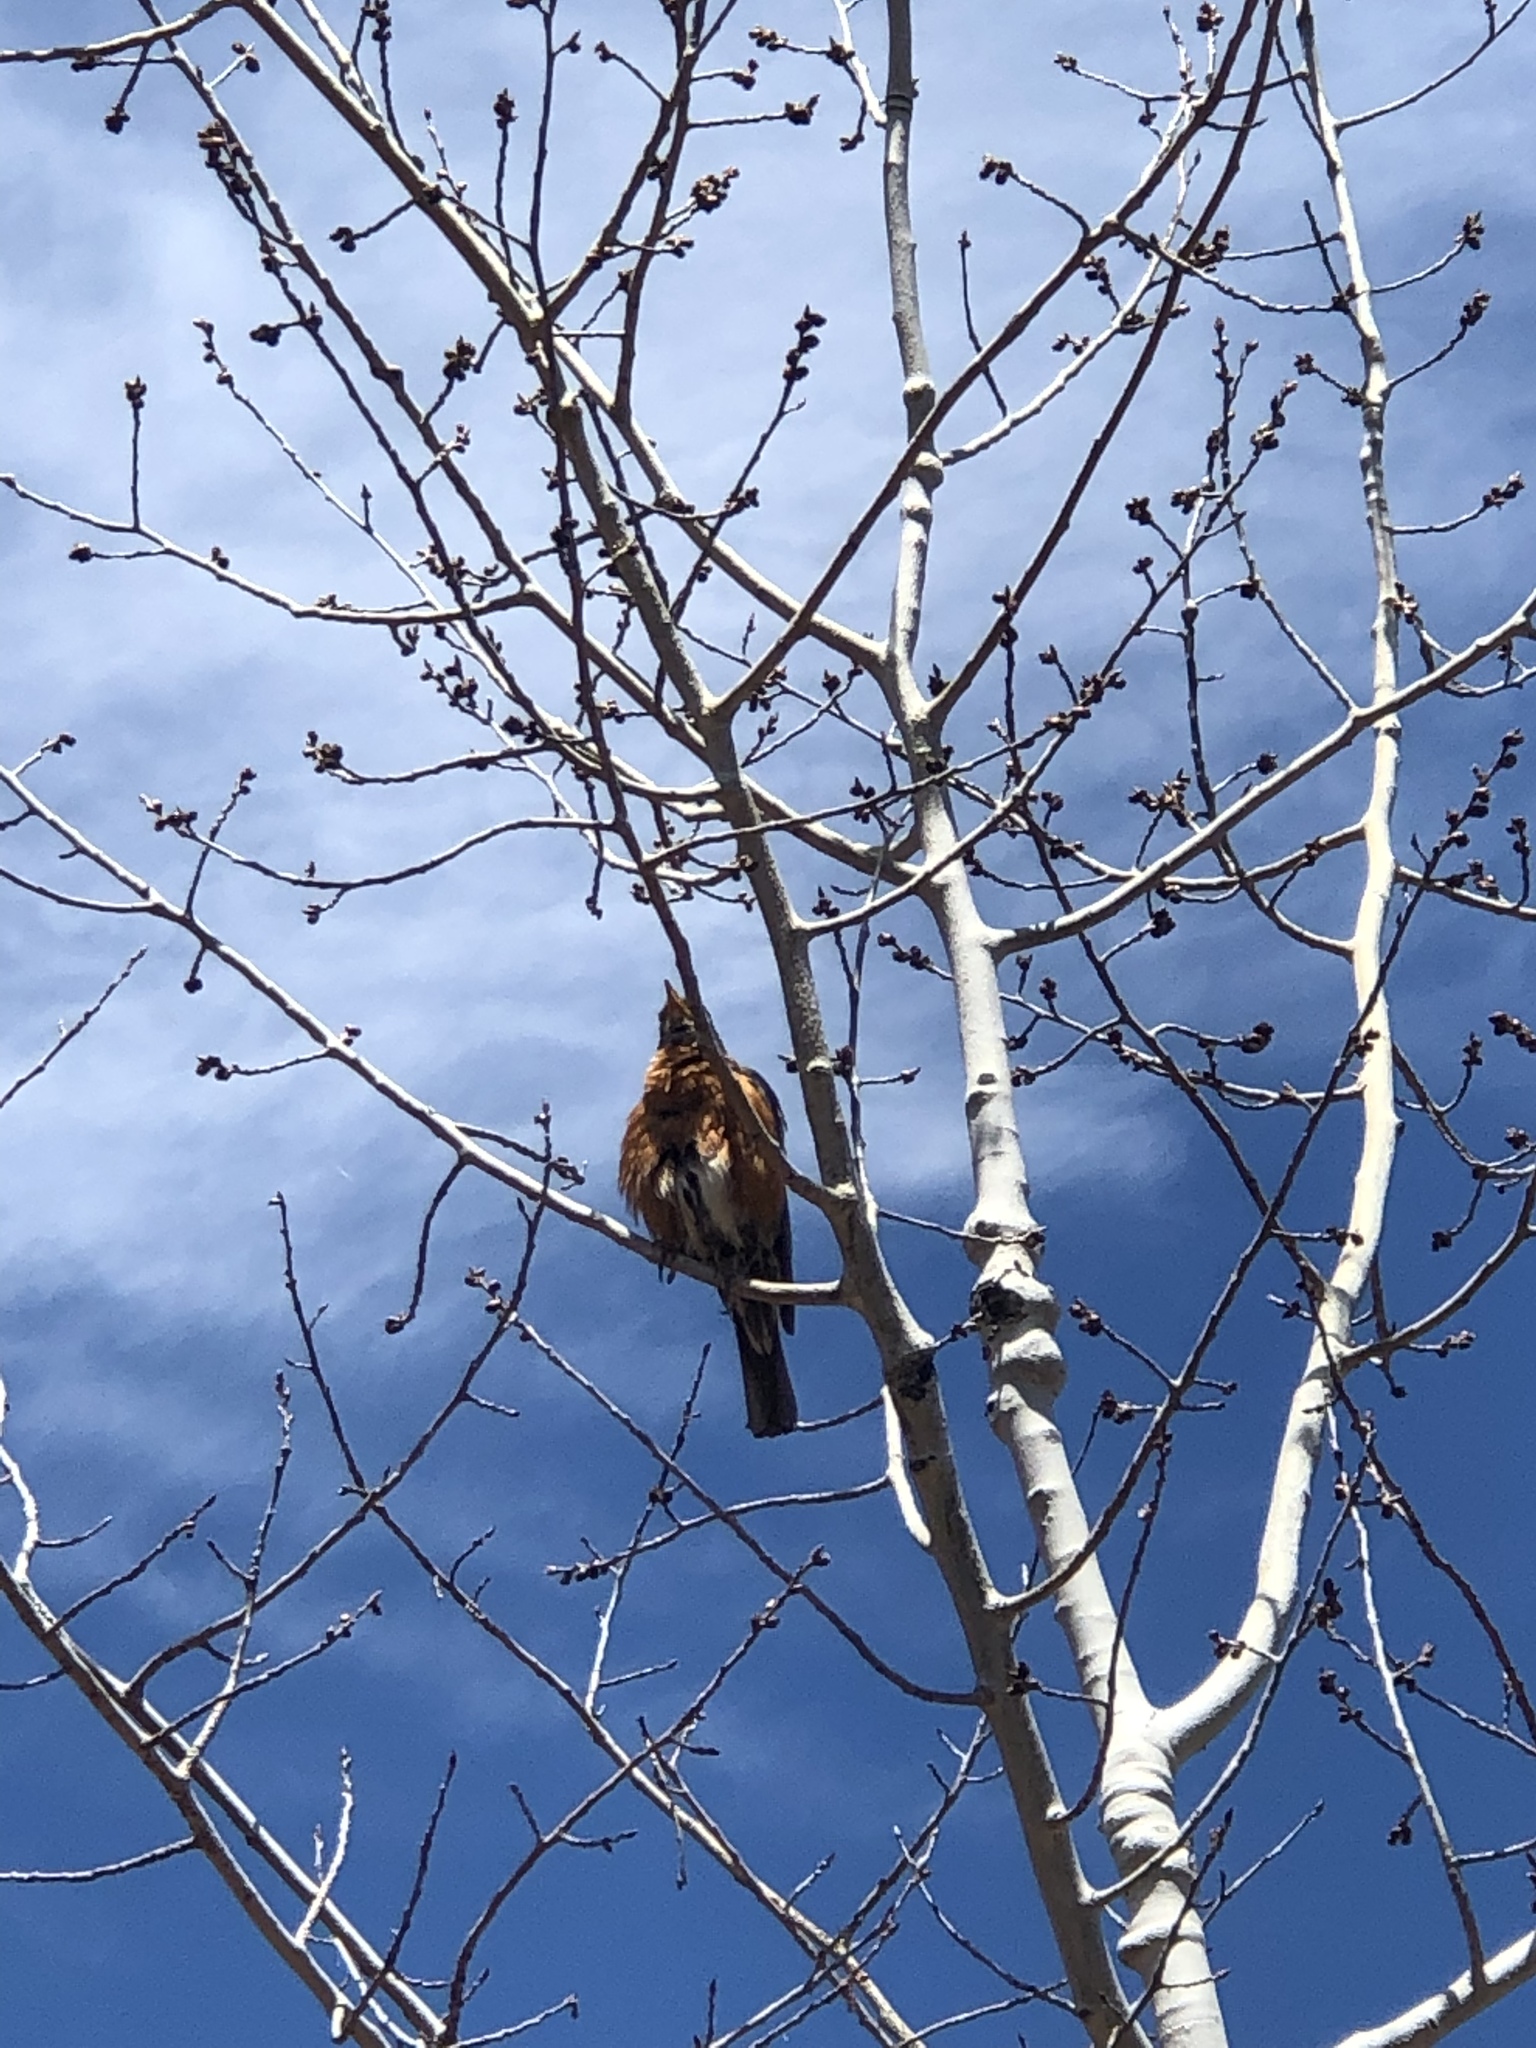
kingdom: Animalia
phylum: Chordata
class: Aves
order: Passeriformes
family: Turdidae
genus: Turdus
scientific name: Turdus migratorius
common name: American robin
